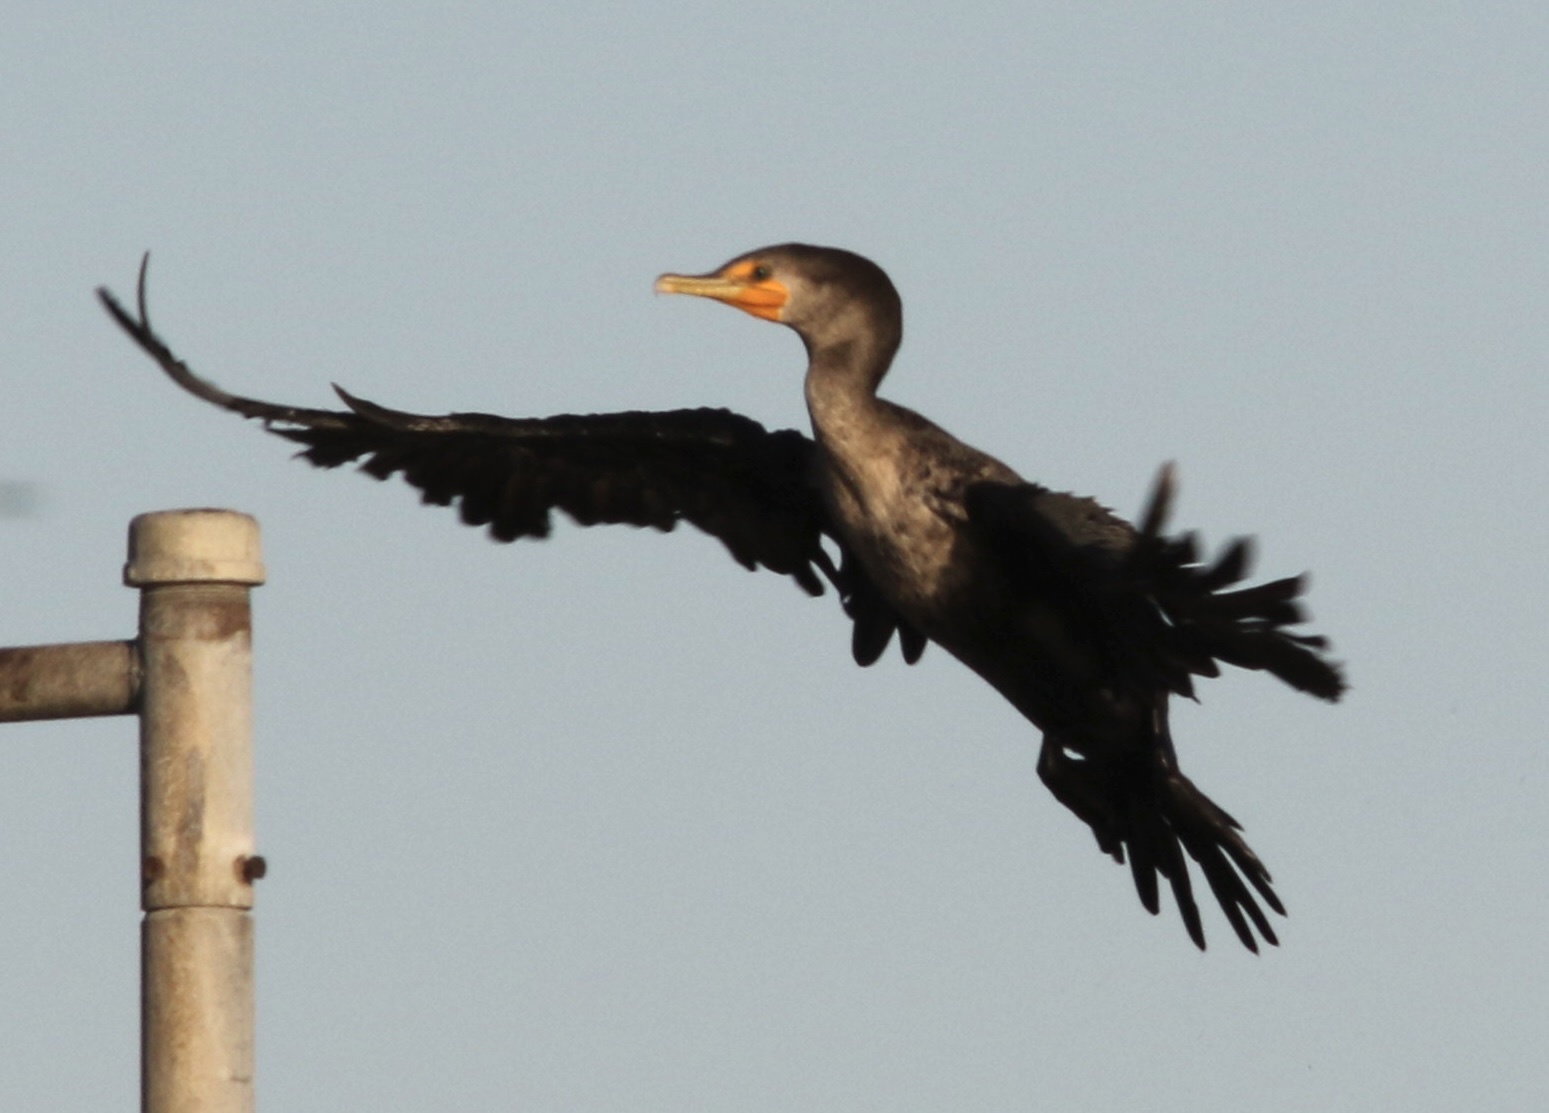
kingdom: Animalia
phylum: Chordata
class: Aves
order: Suliformes
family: Phalacrocoracidae
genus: Phalacrocorax
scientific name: Phalacrocorax auritus
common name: Double-crested cormorant
